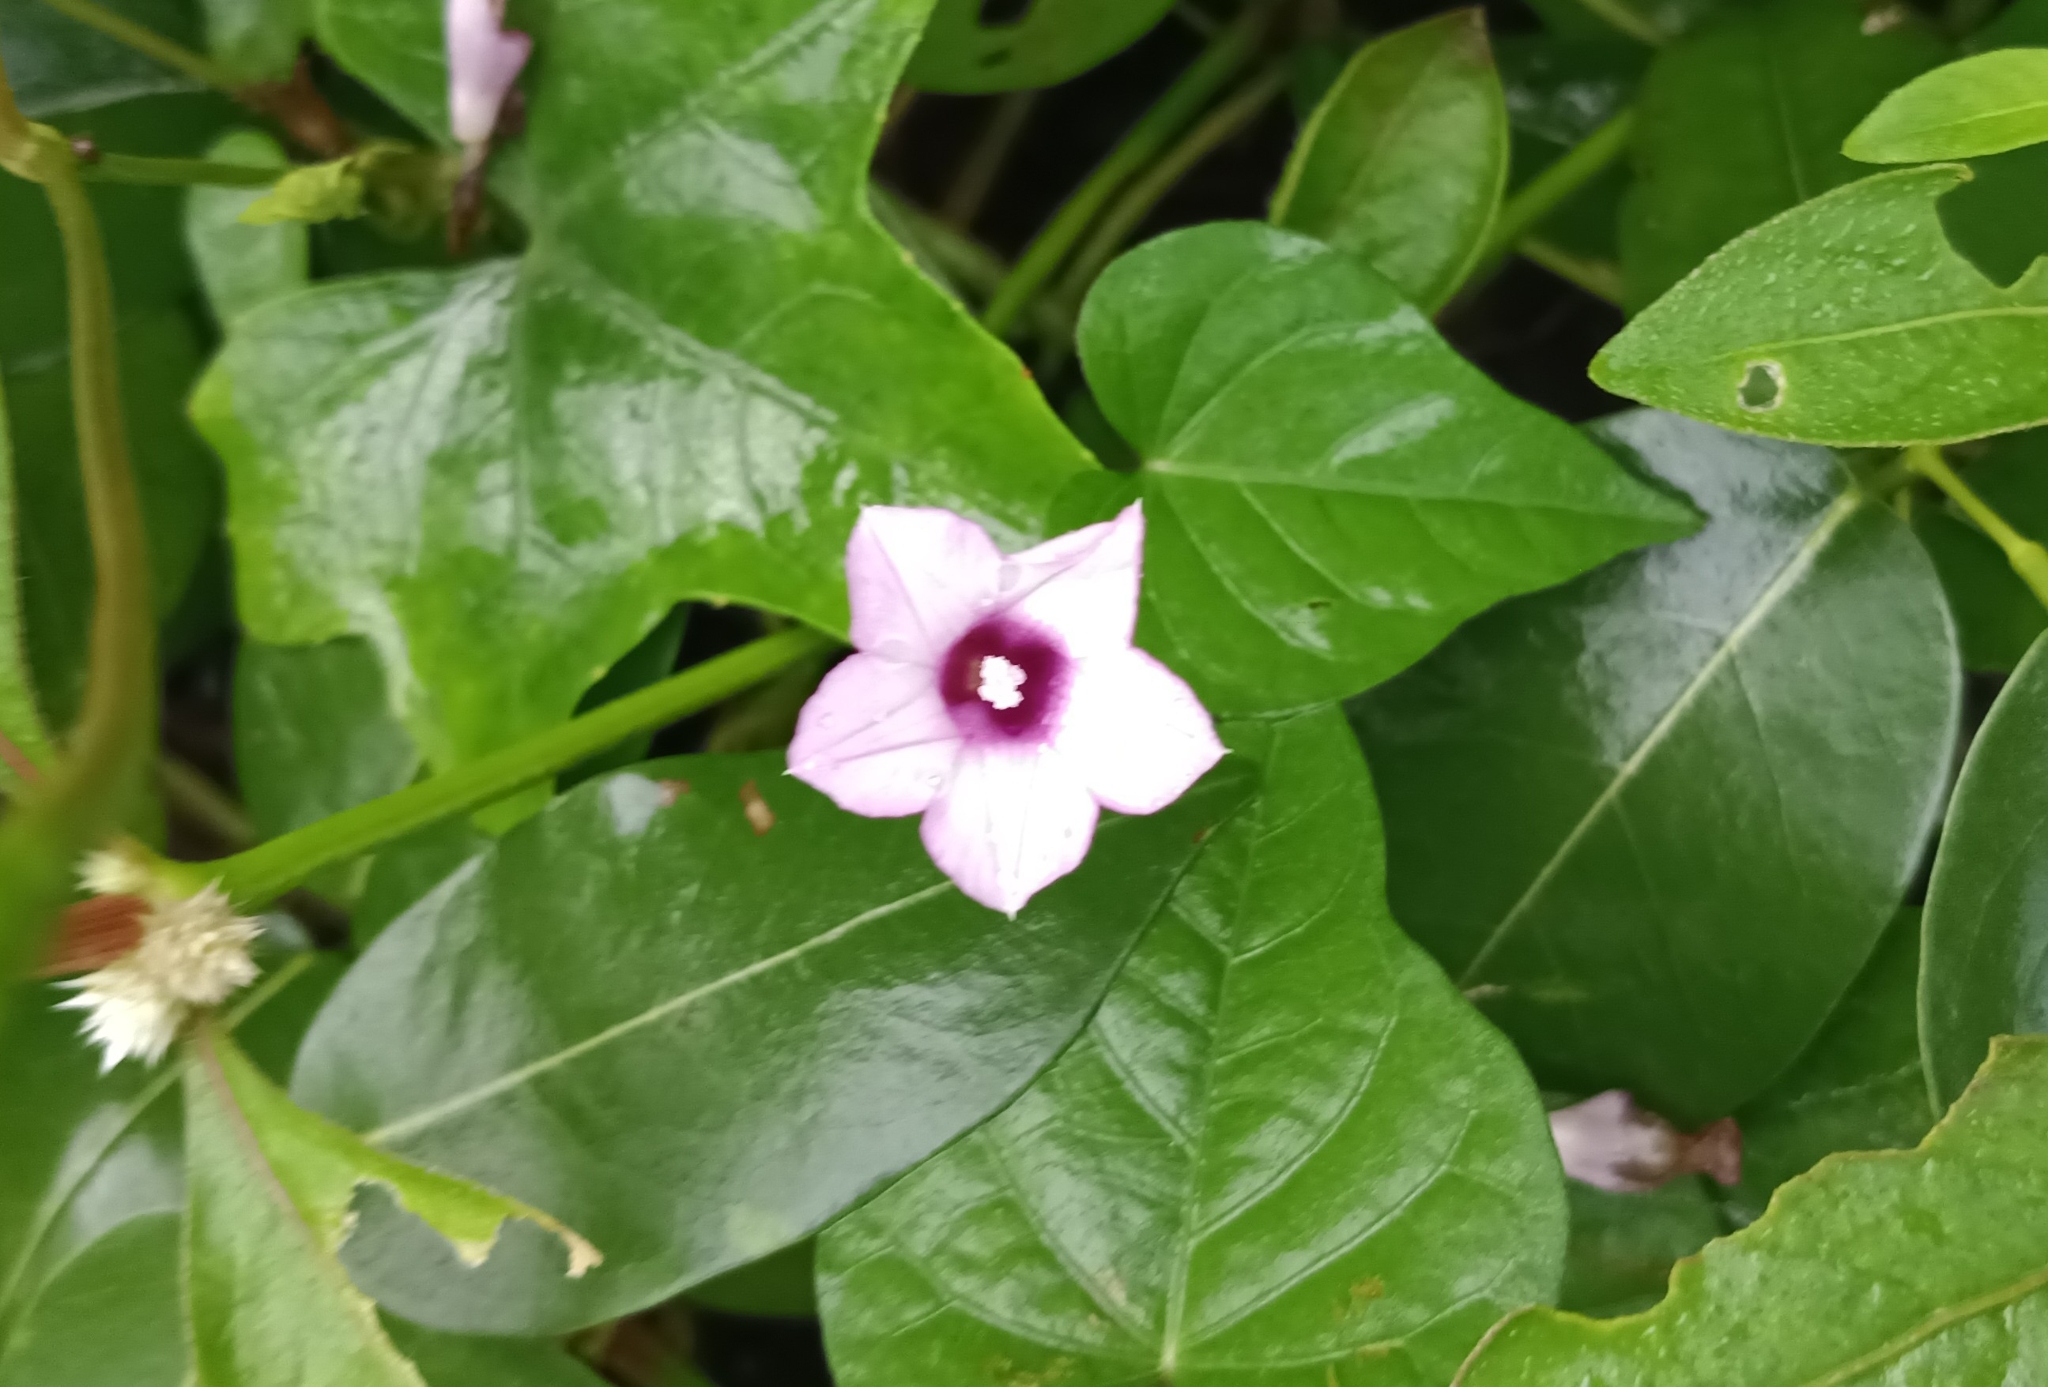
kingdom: Plantae
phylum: Tracheophyta
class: Magnoliopsida
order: Solanales
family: Convolvulaceae
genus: Ipomoea
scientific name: Ipomoea triloba
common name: Little-bell
